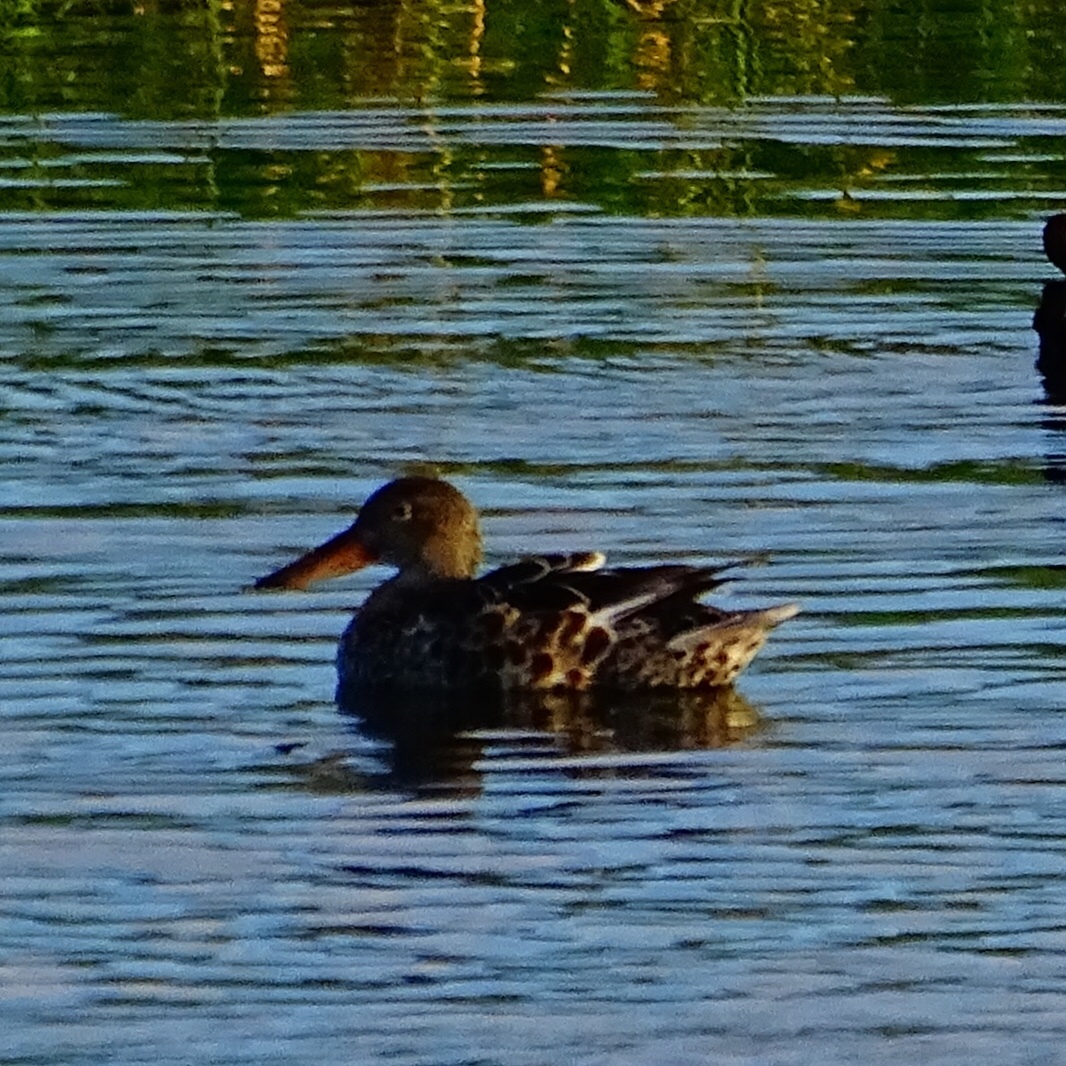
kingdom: Animalia
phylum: Chordata
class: Aves
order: Anseriformes
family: Anatidae
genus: Spatula
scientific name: Spatula clypeata
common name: Northern shoveler
